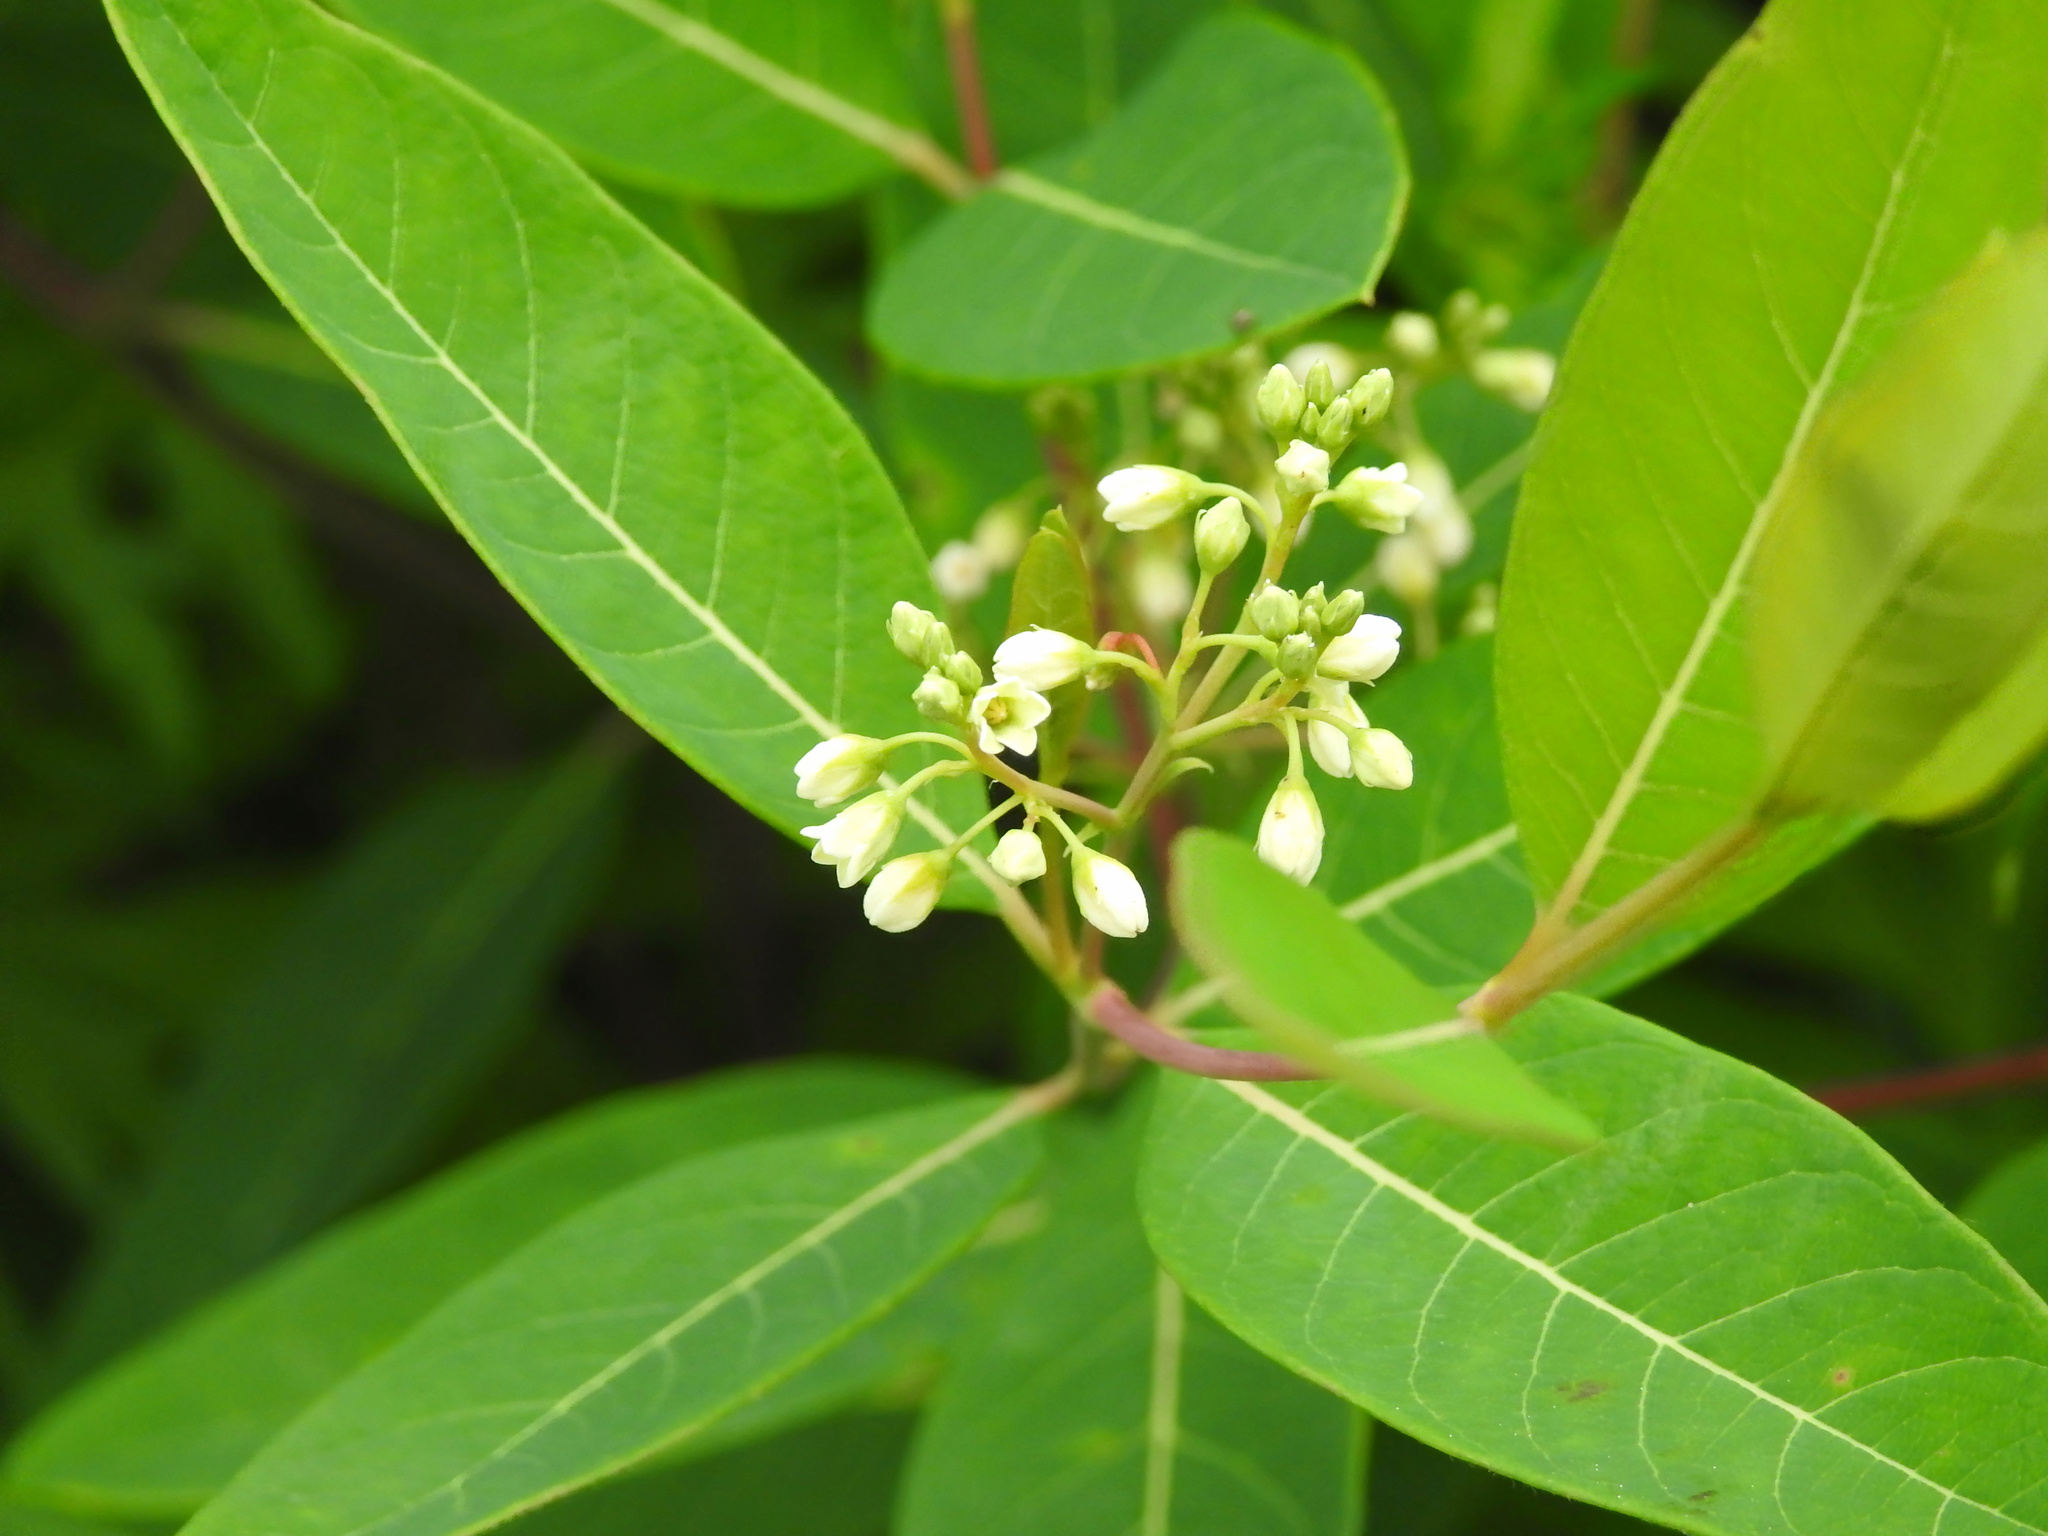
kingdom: Plantae
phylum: Tracheophyta
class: Magnoliopsida
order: Gentianales
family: Apocynaceae
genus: Apocynum
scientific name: Apocynum cannabinum
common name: Hemp dogbane
